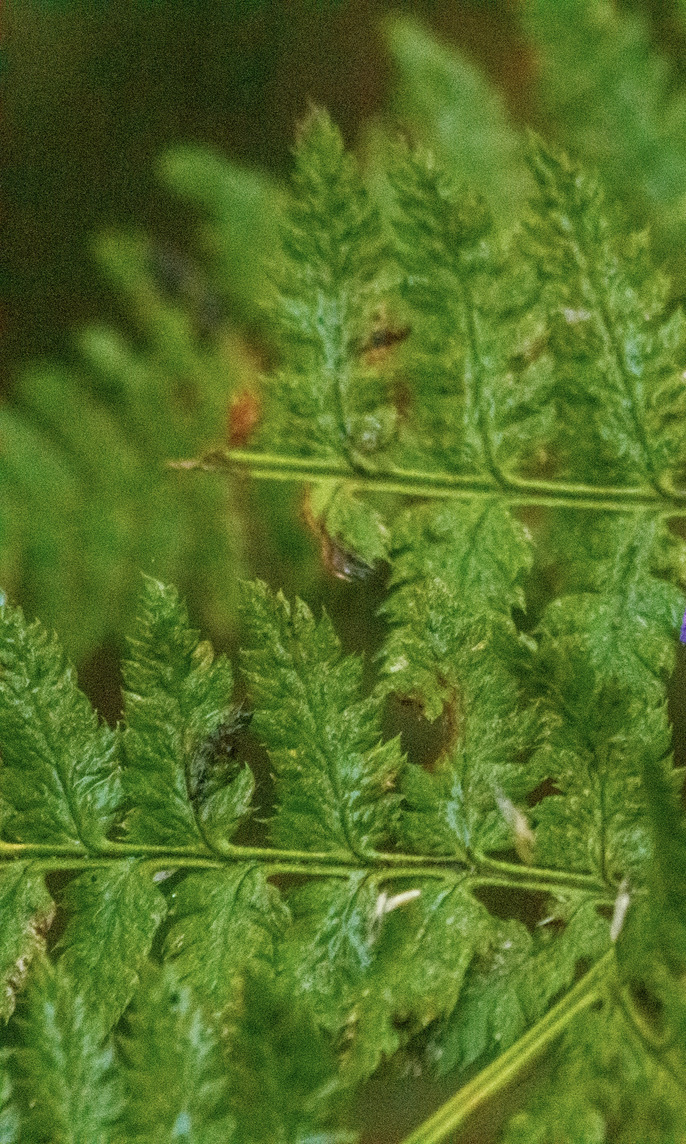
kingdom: Plantae
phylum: Tracheophyta
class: Polypodiopsida
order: Polypodiales
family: Dryopteridaceae
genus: Dryopteris
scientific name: Dryopteris carthusiana
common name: Narrow buckler-fern
